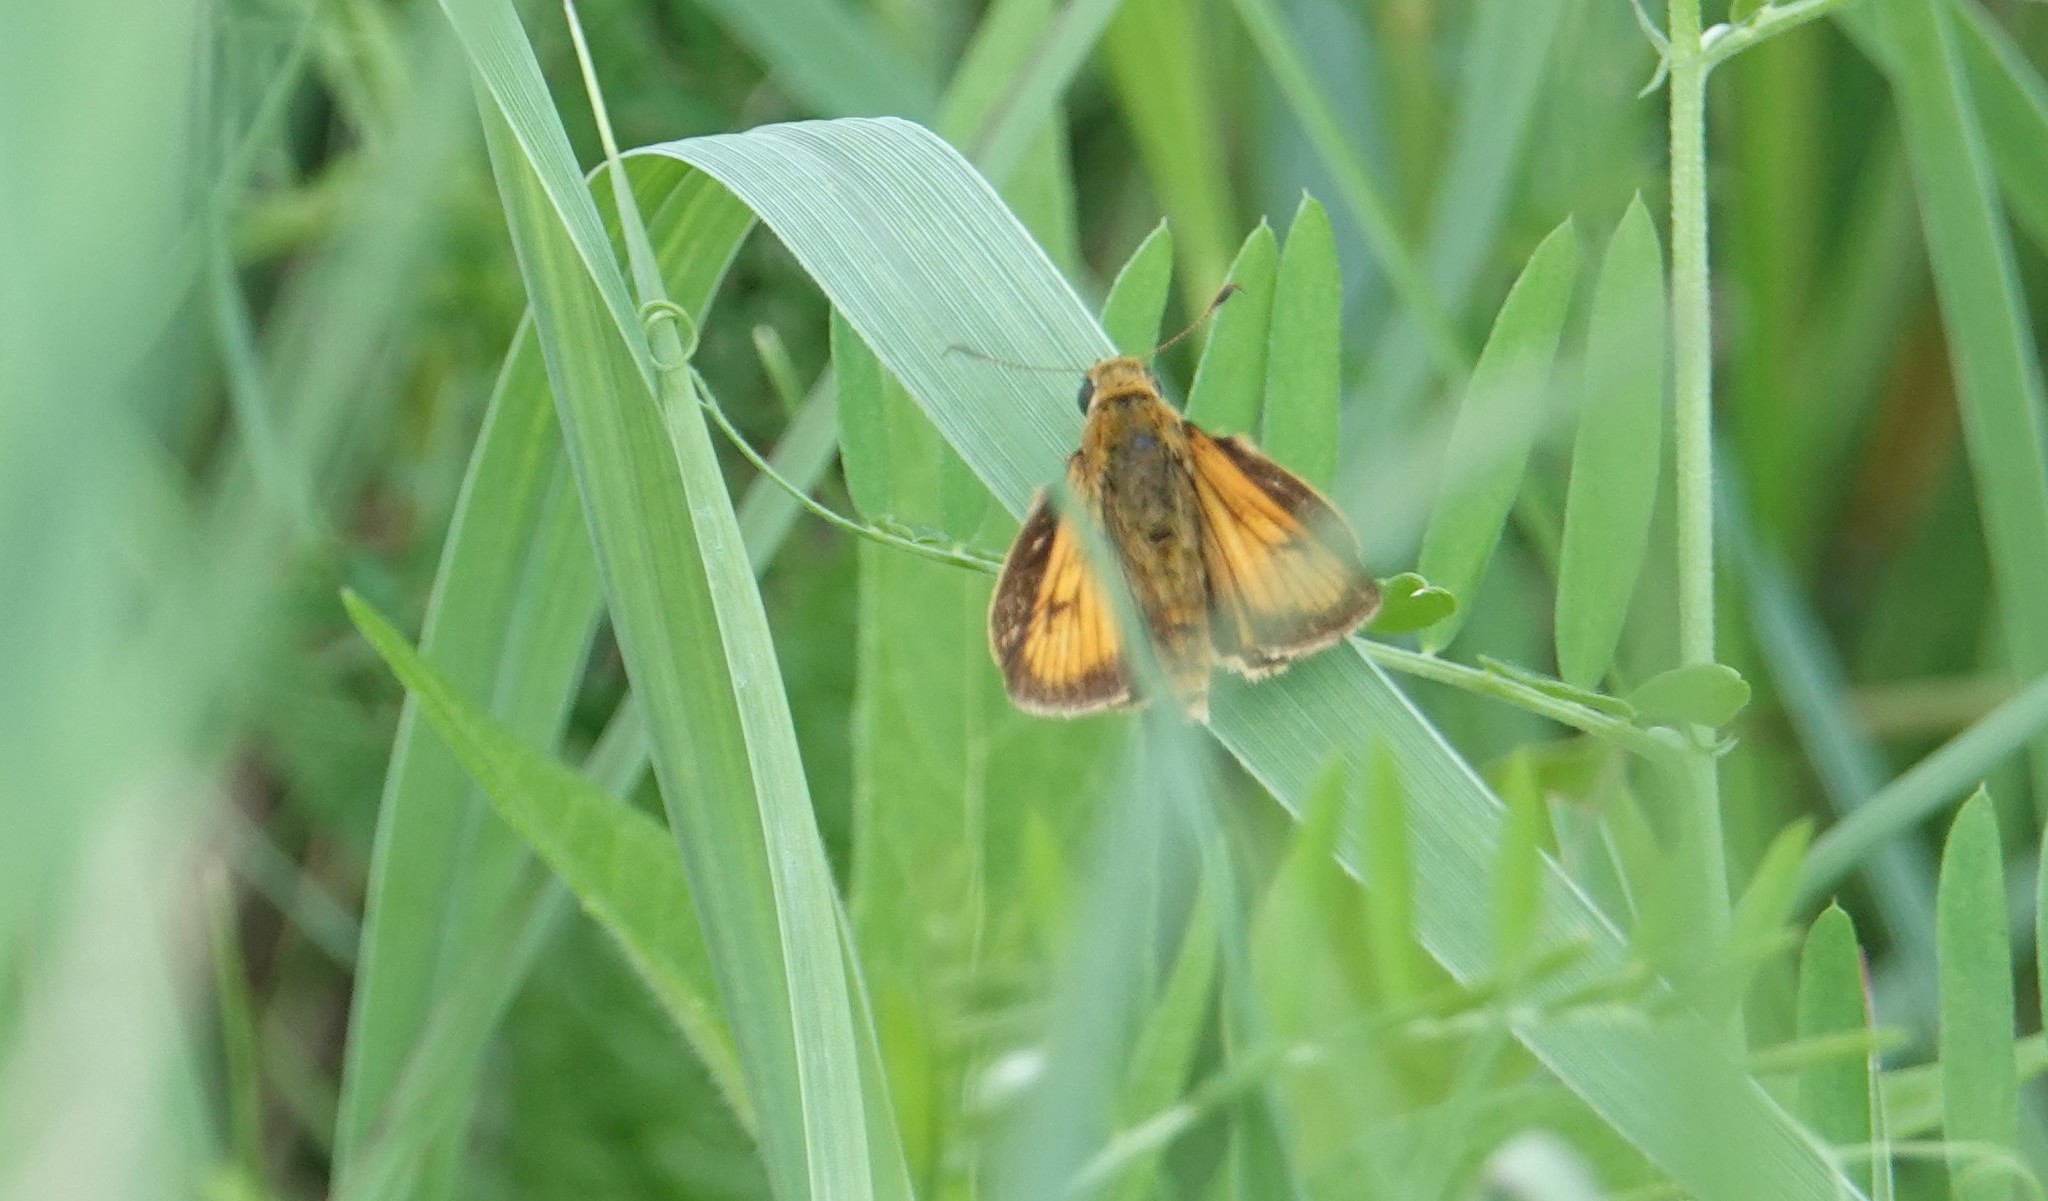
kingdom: Animalia
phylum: Arthropoda
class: Insecta
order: Lepidoptera
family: Hesperiidae
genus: Atrytone
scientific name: Atrytone delaware
